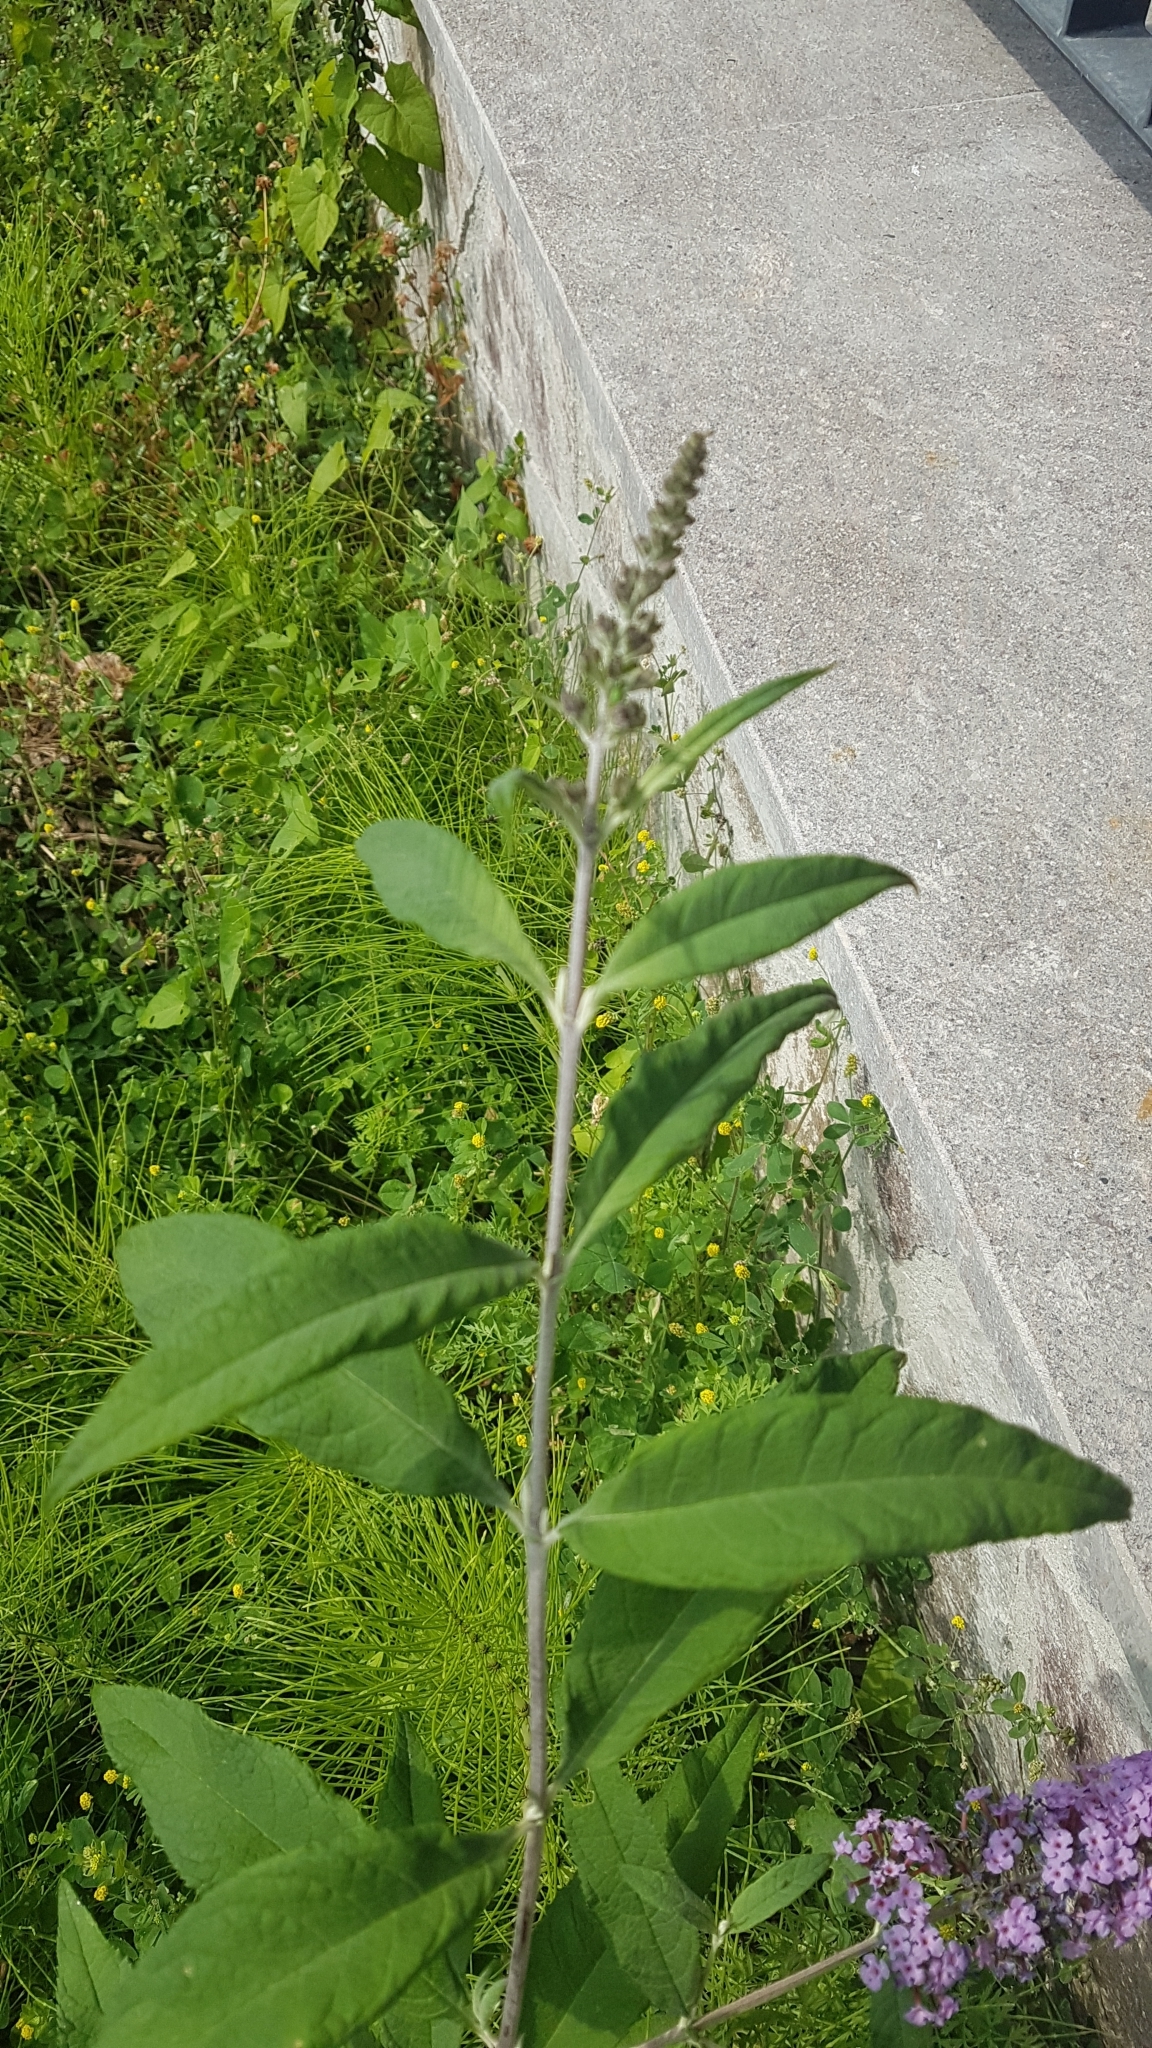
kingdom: Plantae
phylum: Tracheophyta
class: Magnoliopsida
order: Lamiales
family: Scrophulariaceae
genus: Buddleja
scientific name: Buddleja davidii
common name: Butterfly-bush
